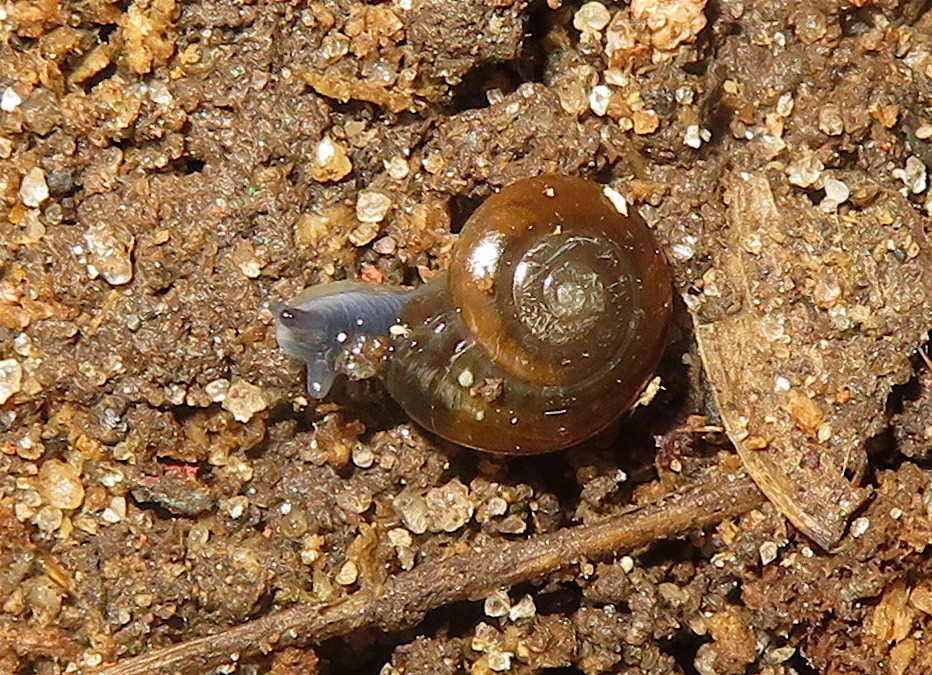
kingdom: Animalia
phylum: Mollusca
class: Gastropoda
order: Stylommatophora
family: Oxychilidae
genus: Oxychilus
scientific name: Oxychilus draparnaudi
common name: Draparnaud's glass snail
